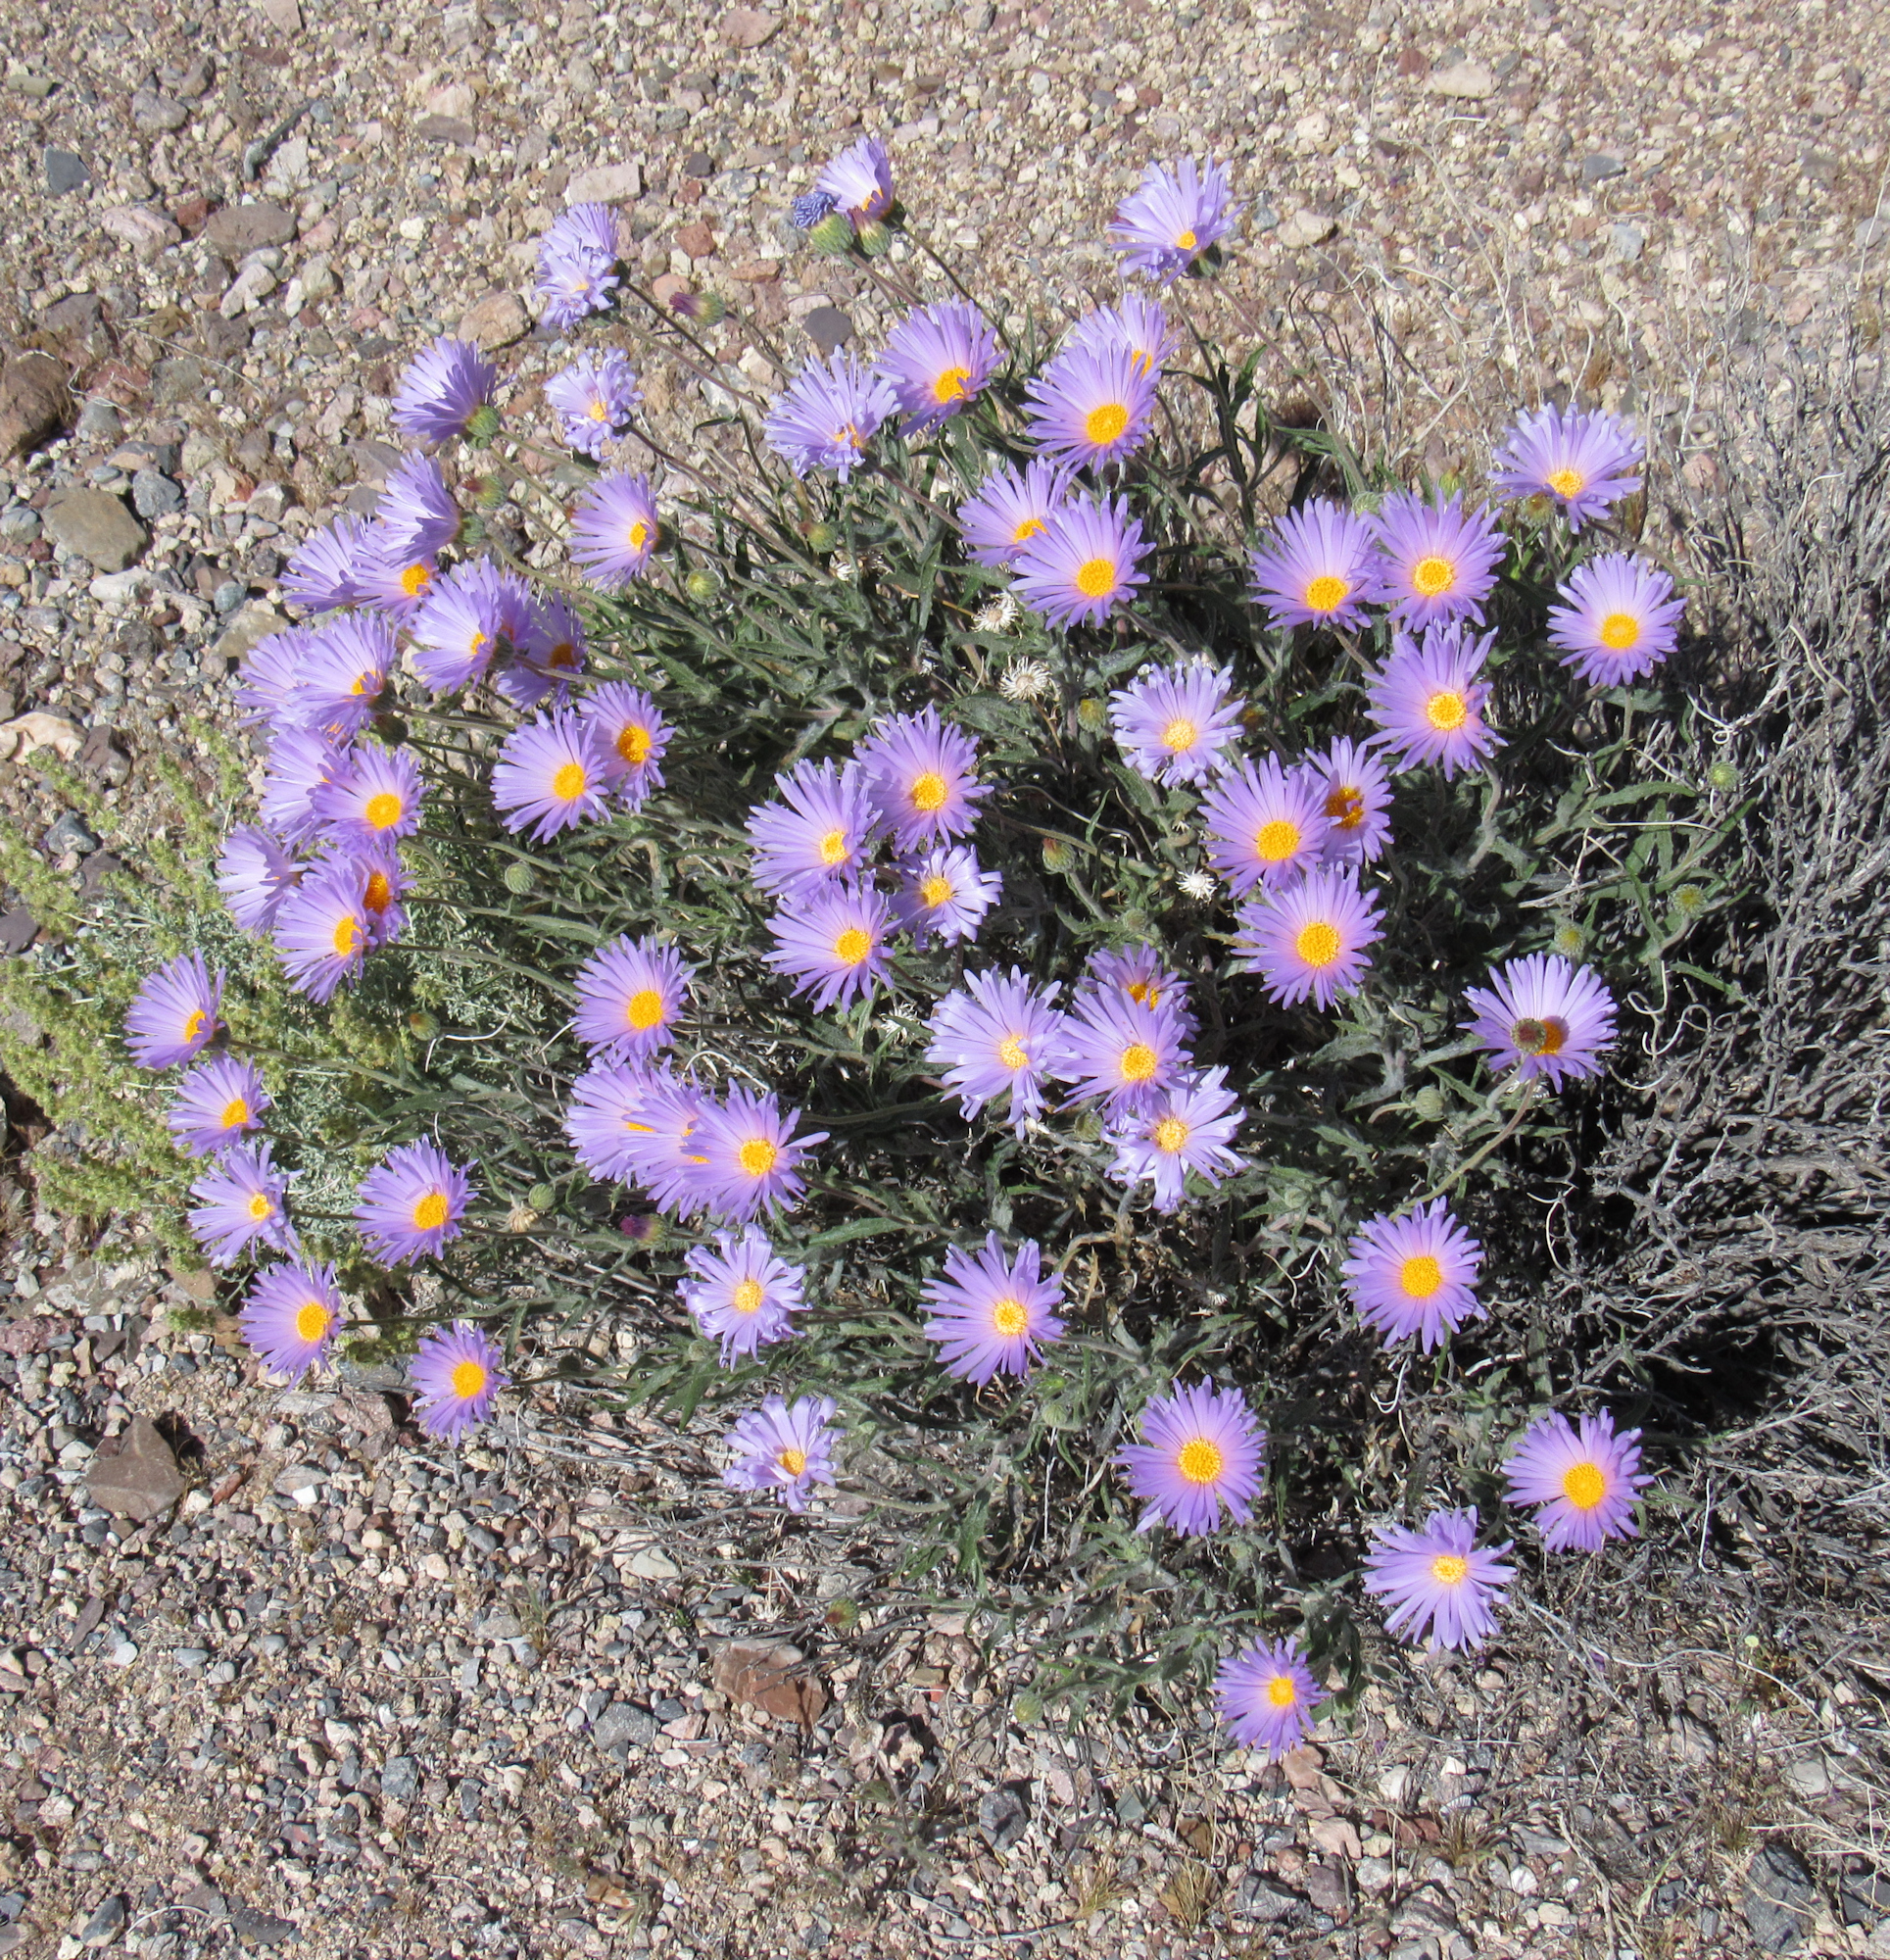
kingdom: Plantae
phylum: Tracheophyta
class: Magnoliopsida
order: Asterales
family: Asteraceae
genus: Xylorhiza
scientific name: Xylorhiza tortifolia
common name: Hurt-leaf woody-aster
